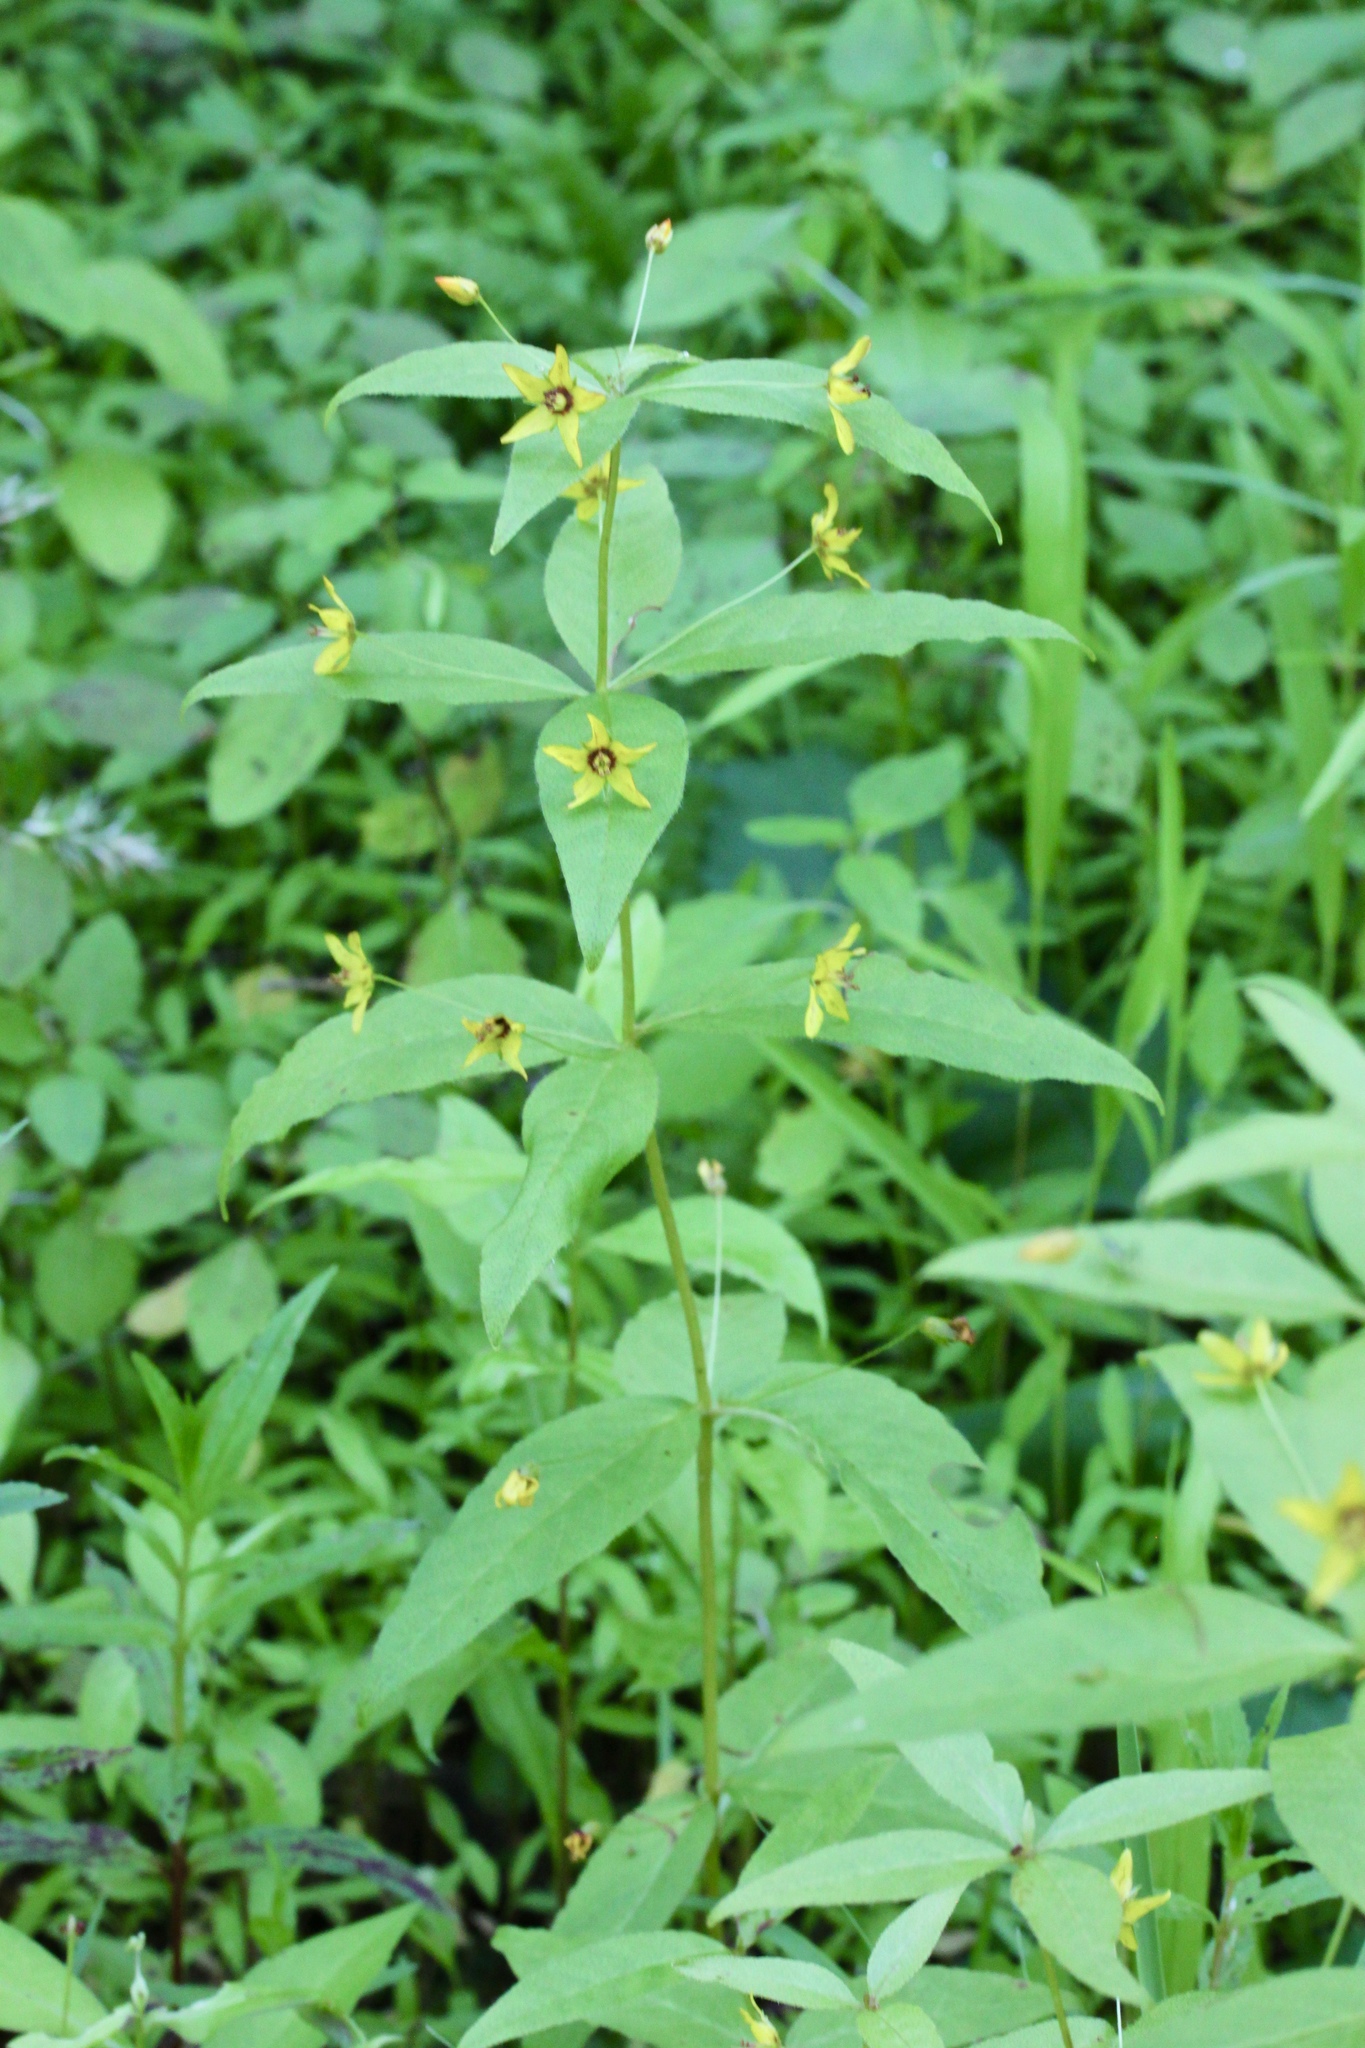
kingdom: Plantae
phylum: Tracheophyta
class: Magnoliopsida
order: Ericales
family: Primulaceae
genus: Lysimachia
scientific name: Lysimachia quadrifolia
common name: Whorled loosestrife
